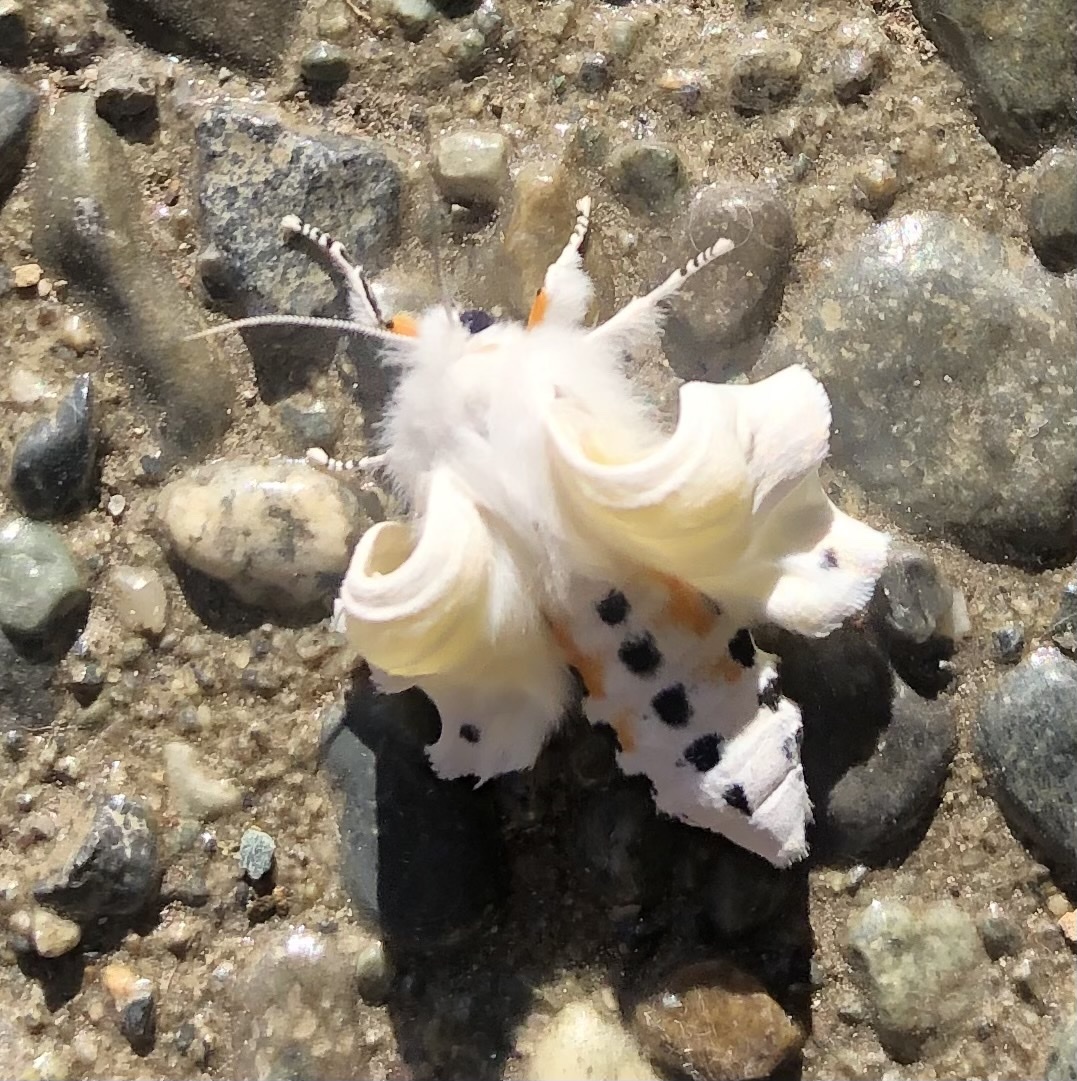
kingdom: Animalia
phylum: Arthropoda
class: Insecta
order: Lepidoptera
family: Erebidae
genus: Spilosoma
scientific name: Spilosoma virginica
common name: Virginia tiger moth
